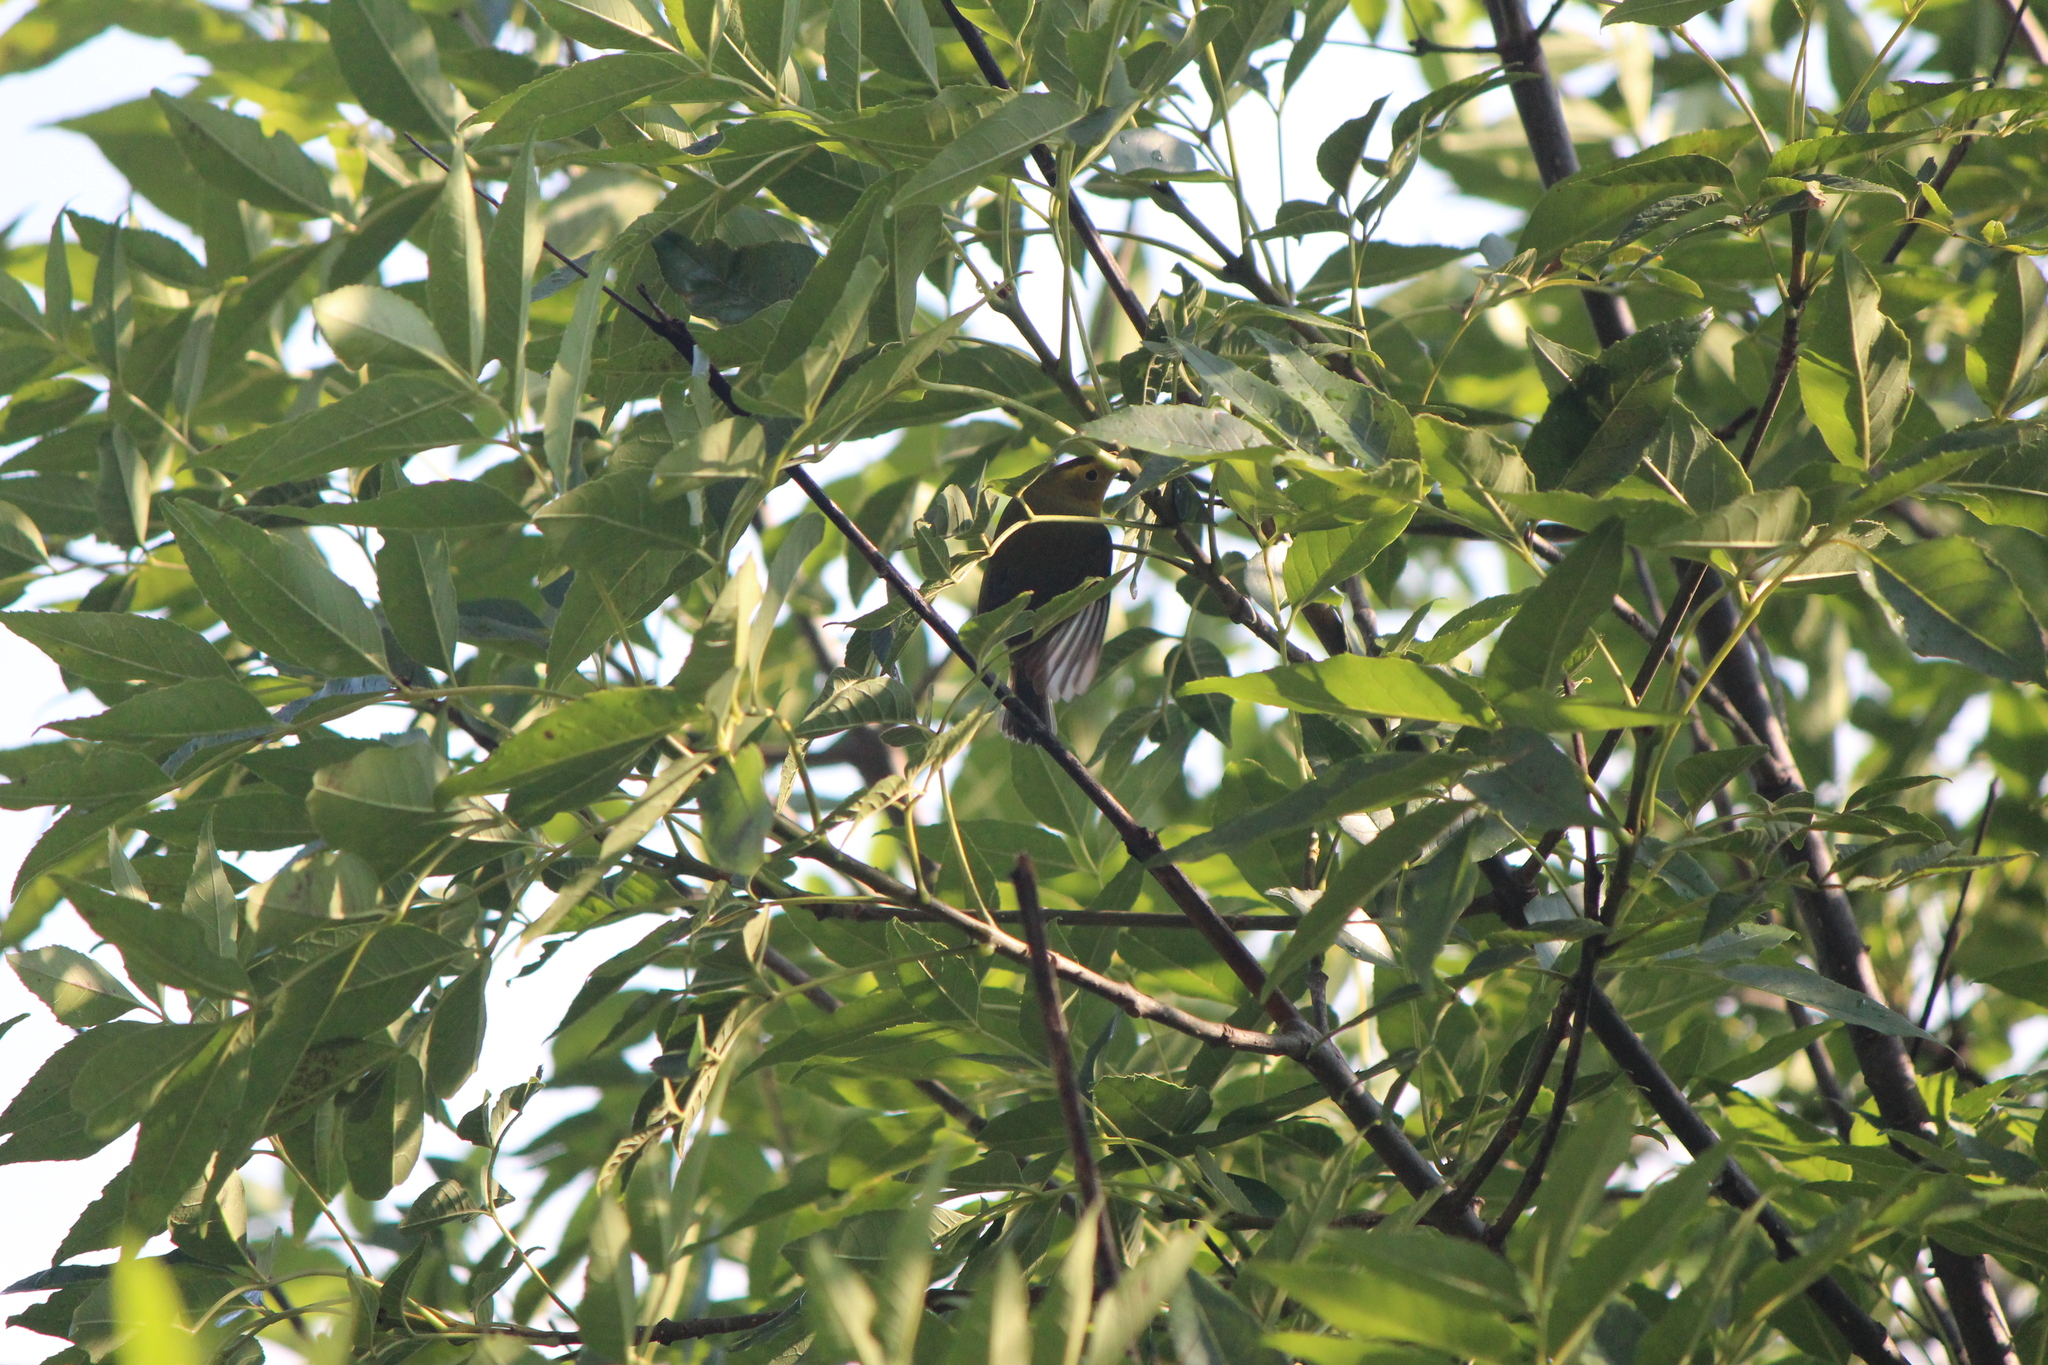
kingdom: Animalia
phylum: Chordata
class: Aves
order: Passeriformes
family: Parulidae
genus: Cardellina
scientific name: Cardellina pusilla
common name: Wilson's warbler
